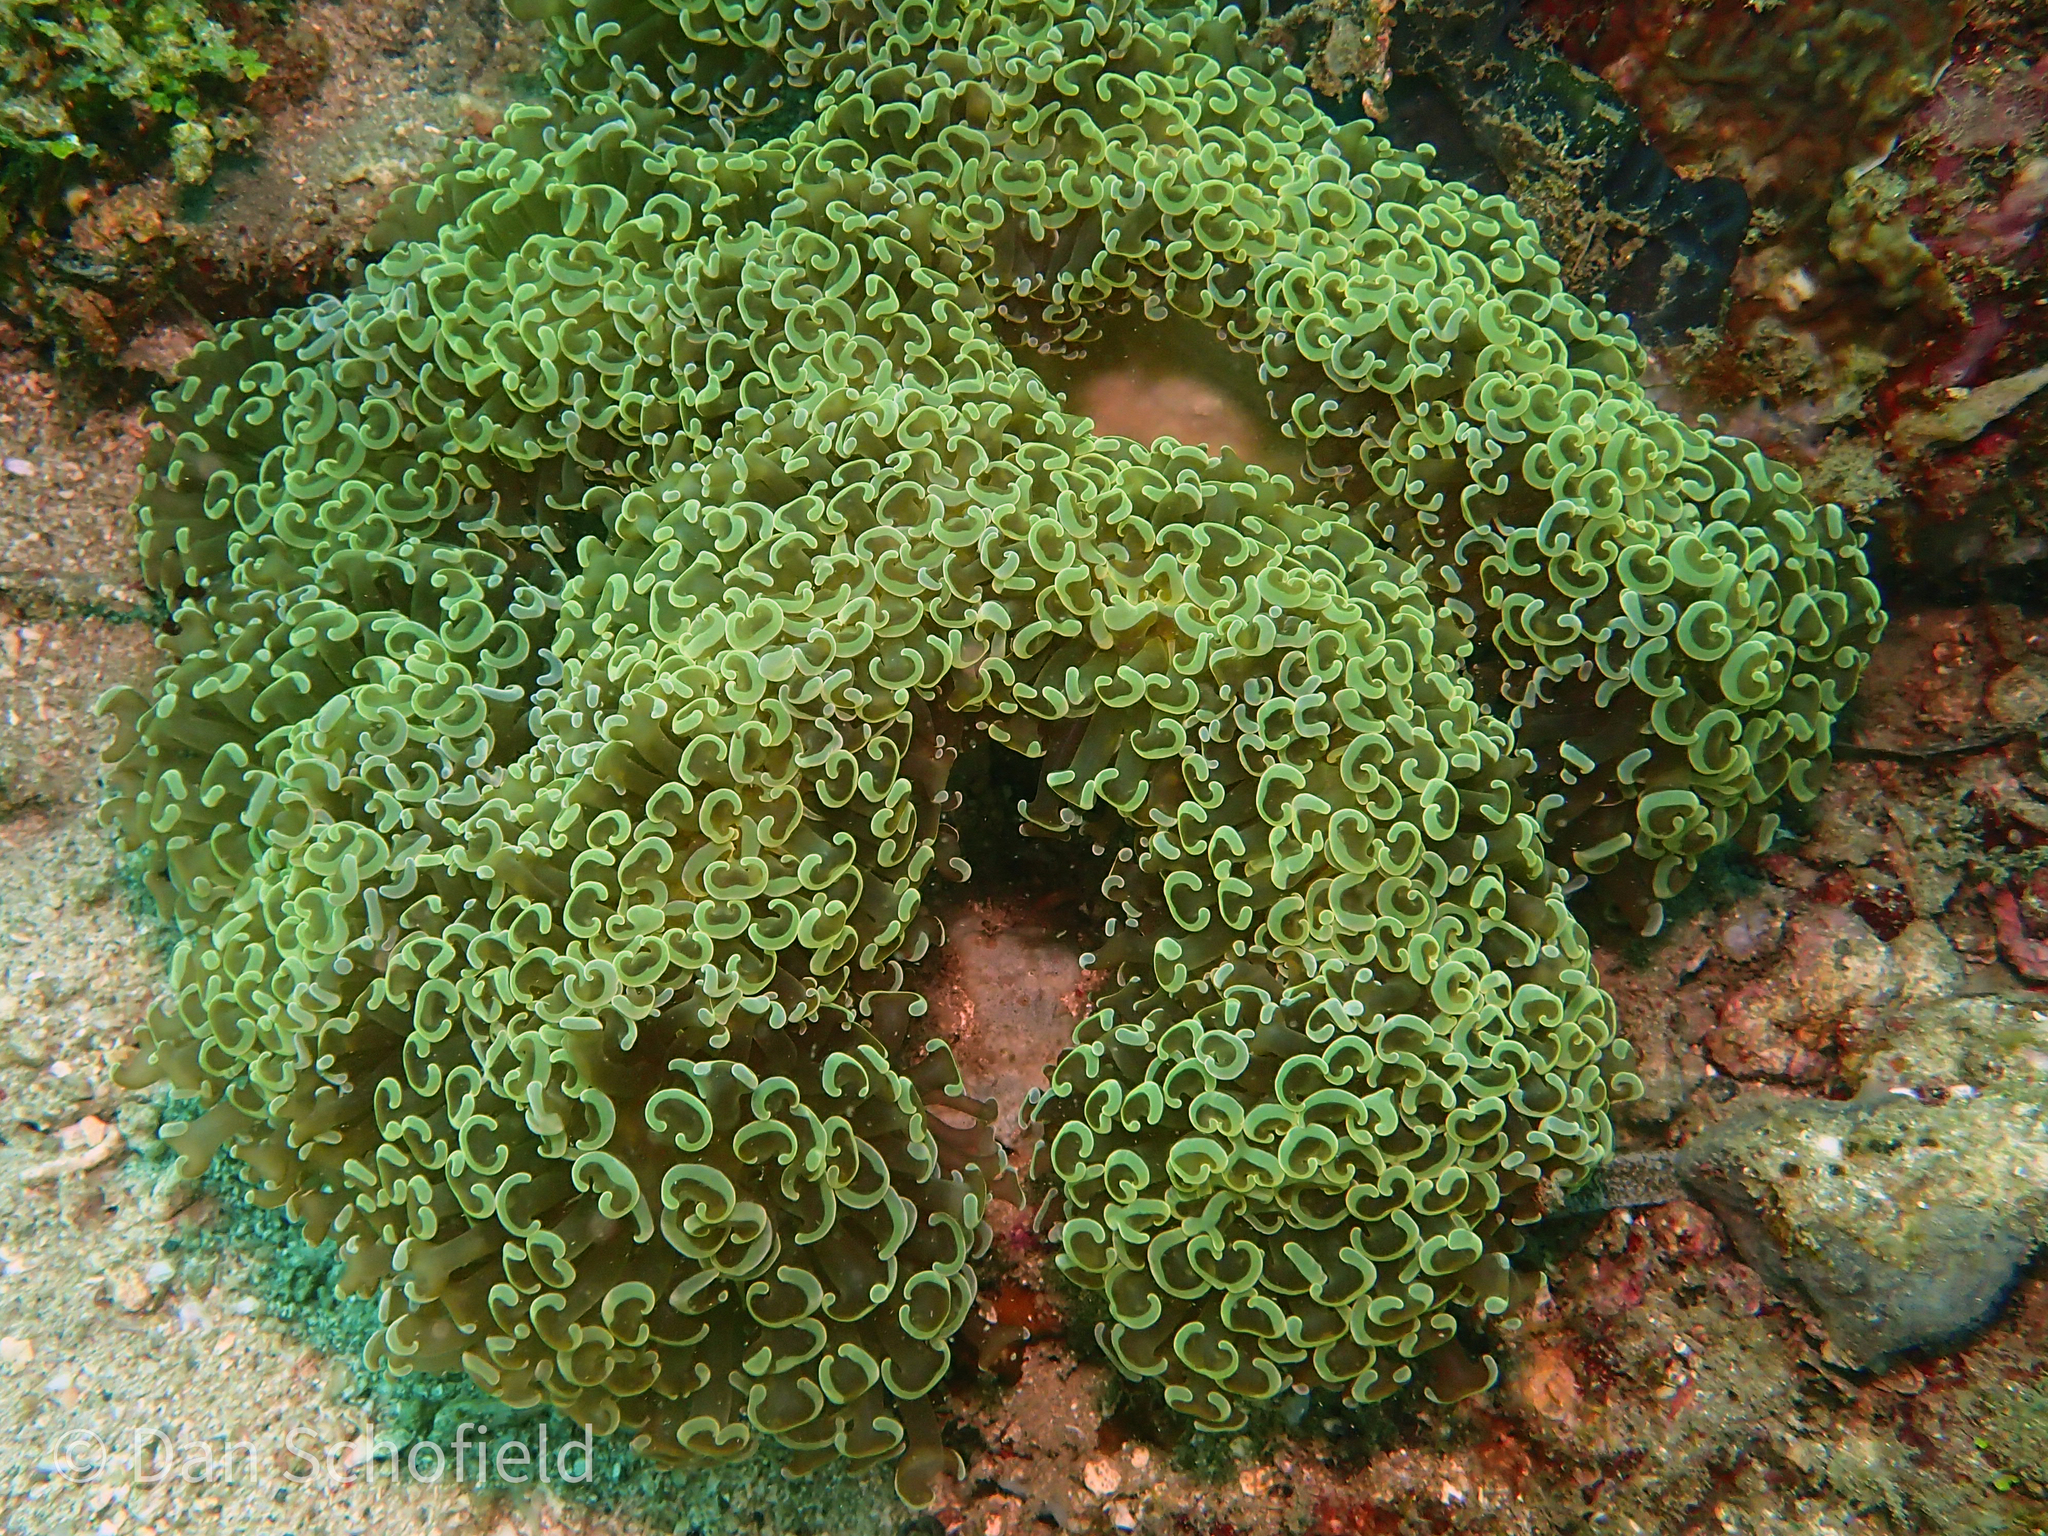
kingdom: Animalia
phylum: Cnidaria
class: Anthozoa
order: Scleractinia
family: Euphylliidae
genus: Fimbriaphyllia
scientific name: Fimbriaphyllia ancora
